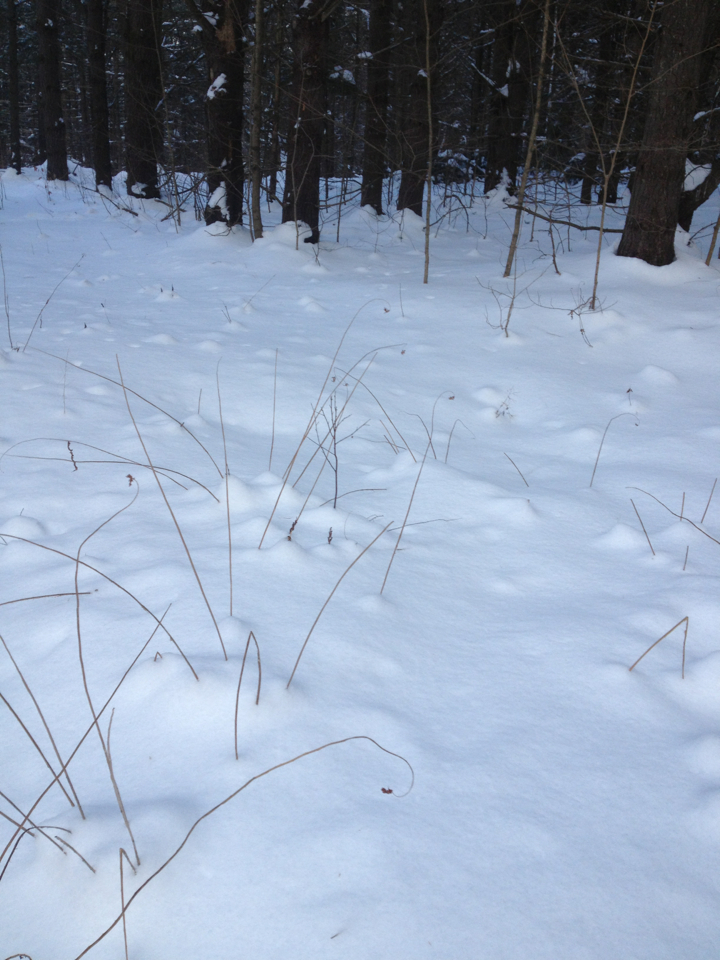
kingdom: Plantae
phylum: Tracheophyta
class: Polypodiopsida
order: Osmundales
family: Osmundaceae
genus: Osmunda
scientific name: Osmunda spectabilis
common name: American royal fern
